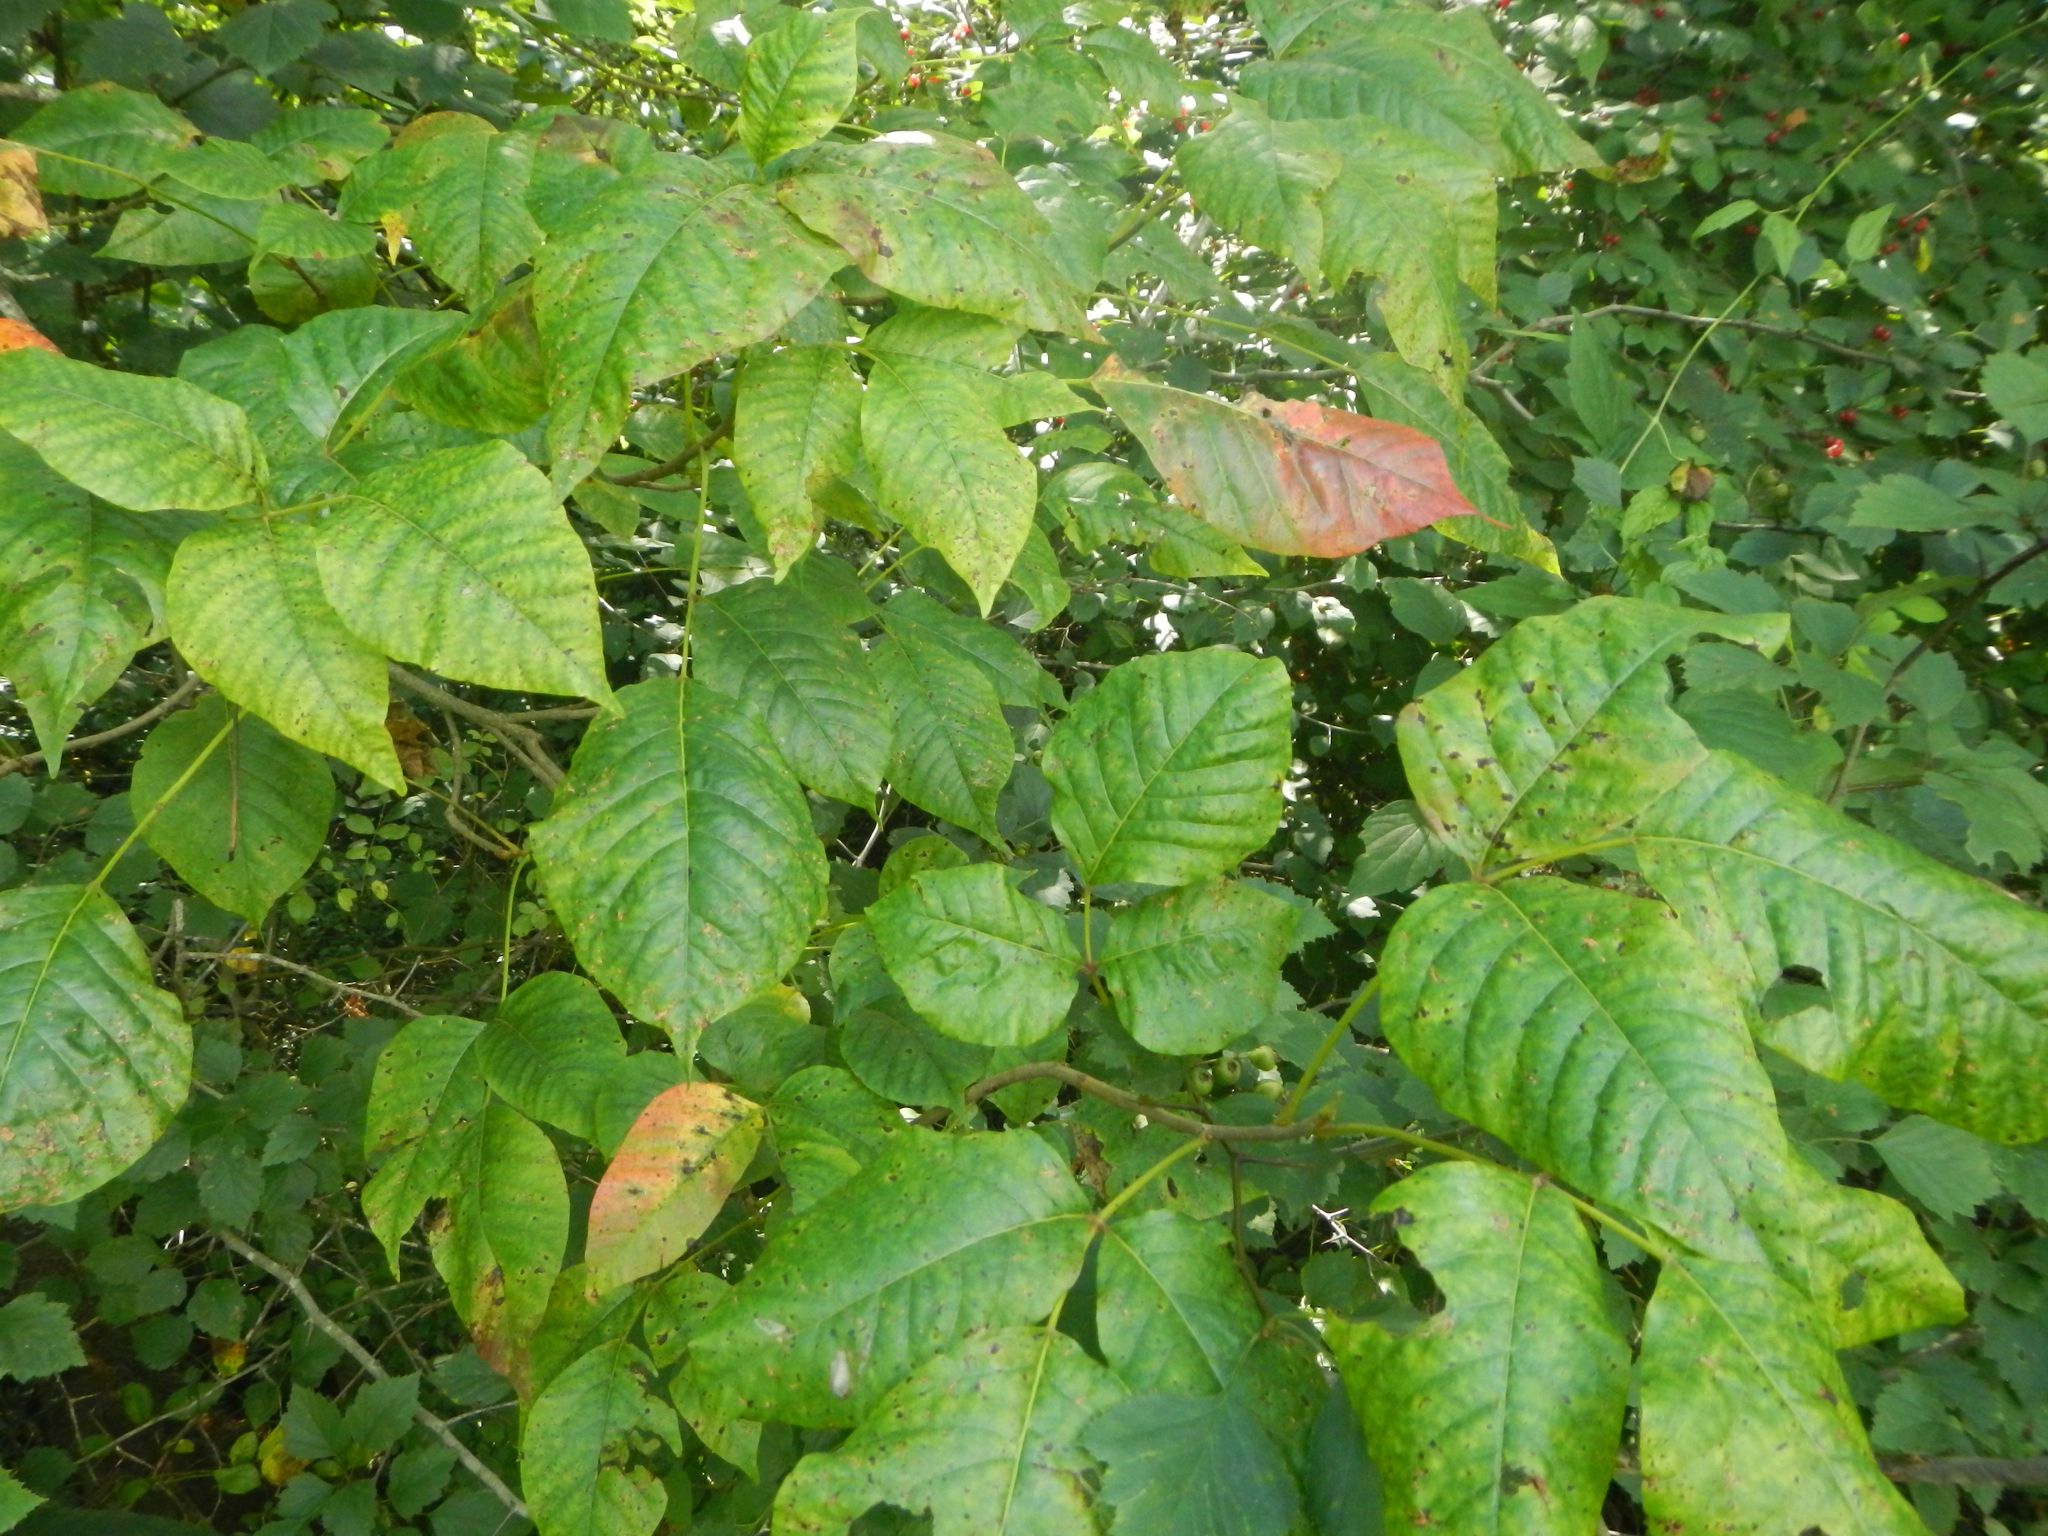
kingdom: Plantae
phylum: Tracheophyta
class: Magnoliopsida
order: Sapindales
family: Anacardiaceae
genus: Toxicodendron
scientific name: Toxicodendron radicans
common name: Poison ivy
